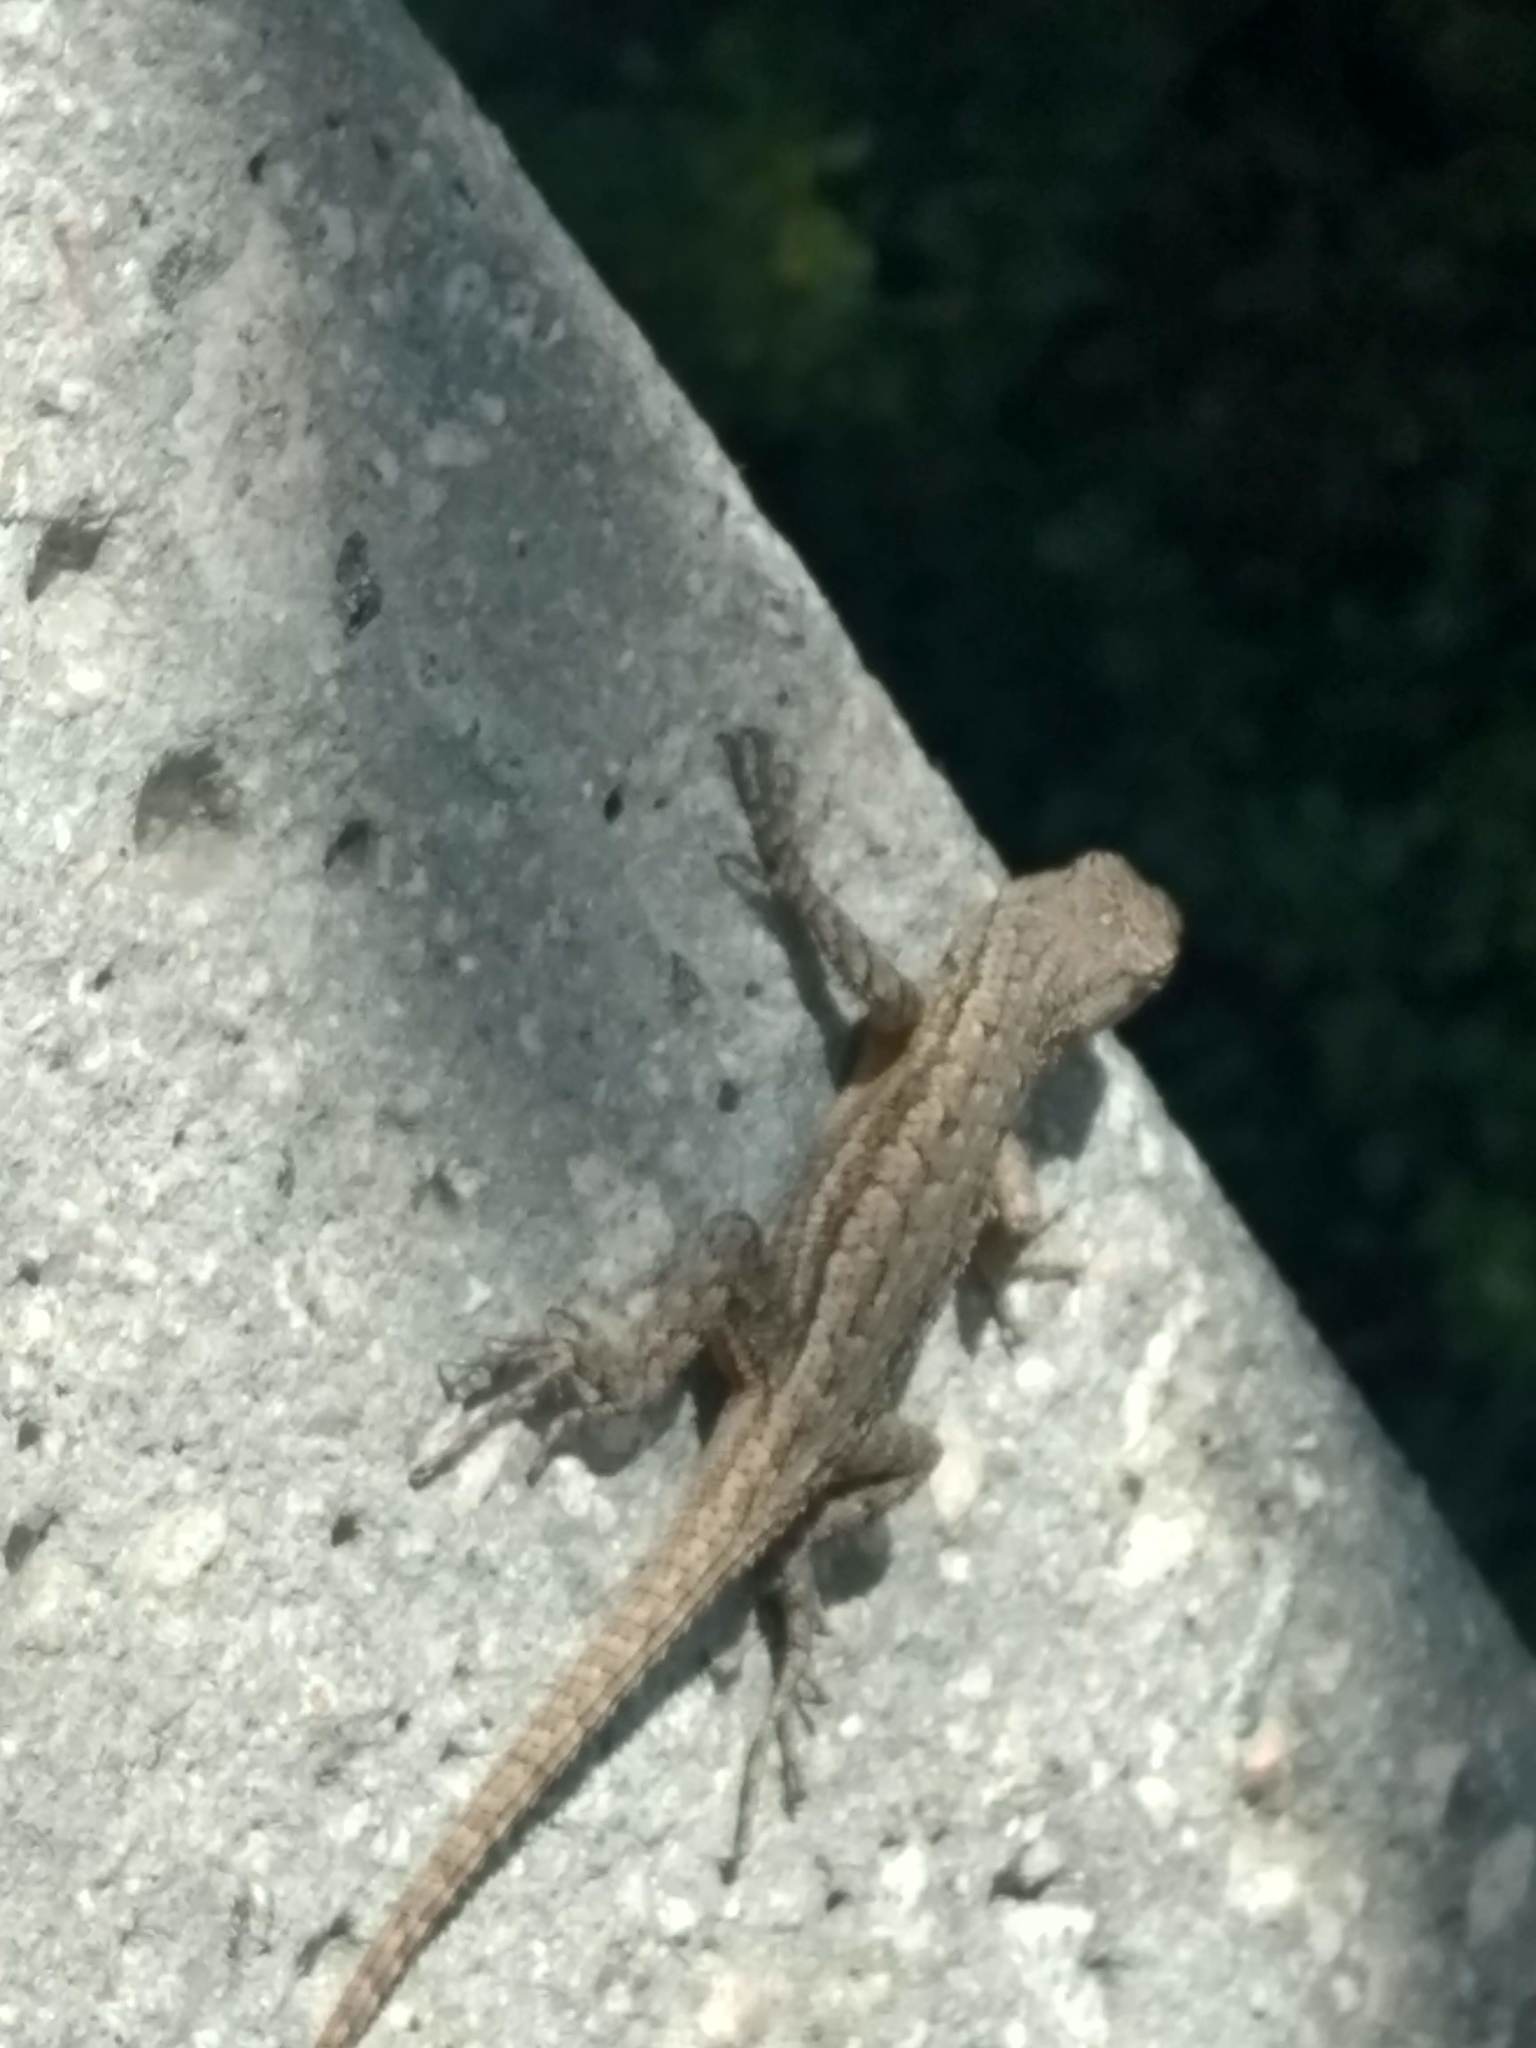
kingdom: Animalia
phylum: Chordata
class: Squamata
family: Phrynosomatidae
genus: Sceloporus
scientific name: Sceloporus occidentalis
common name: Western fence lizard
